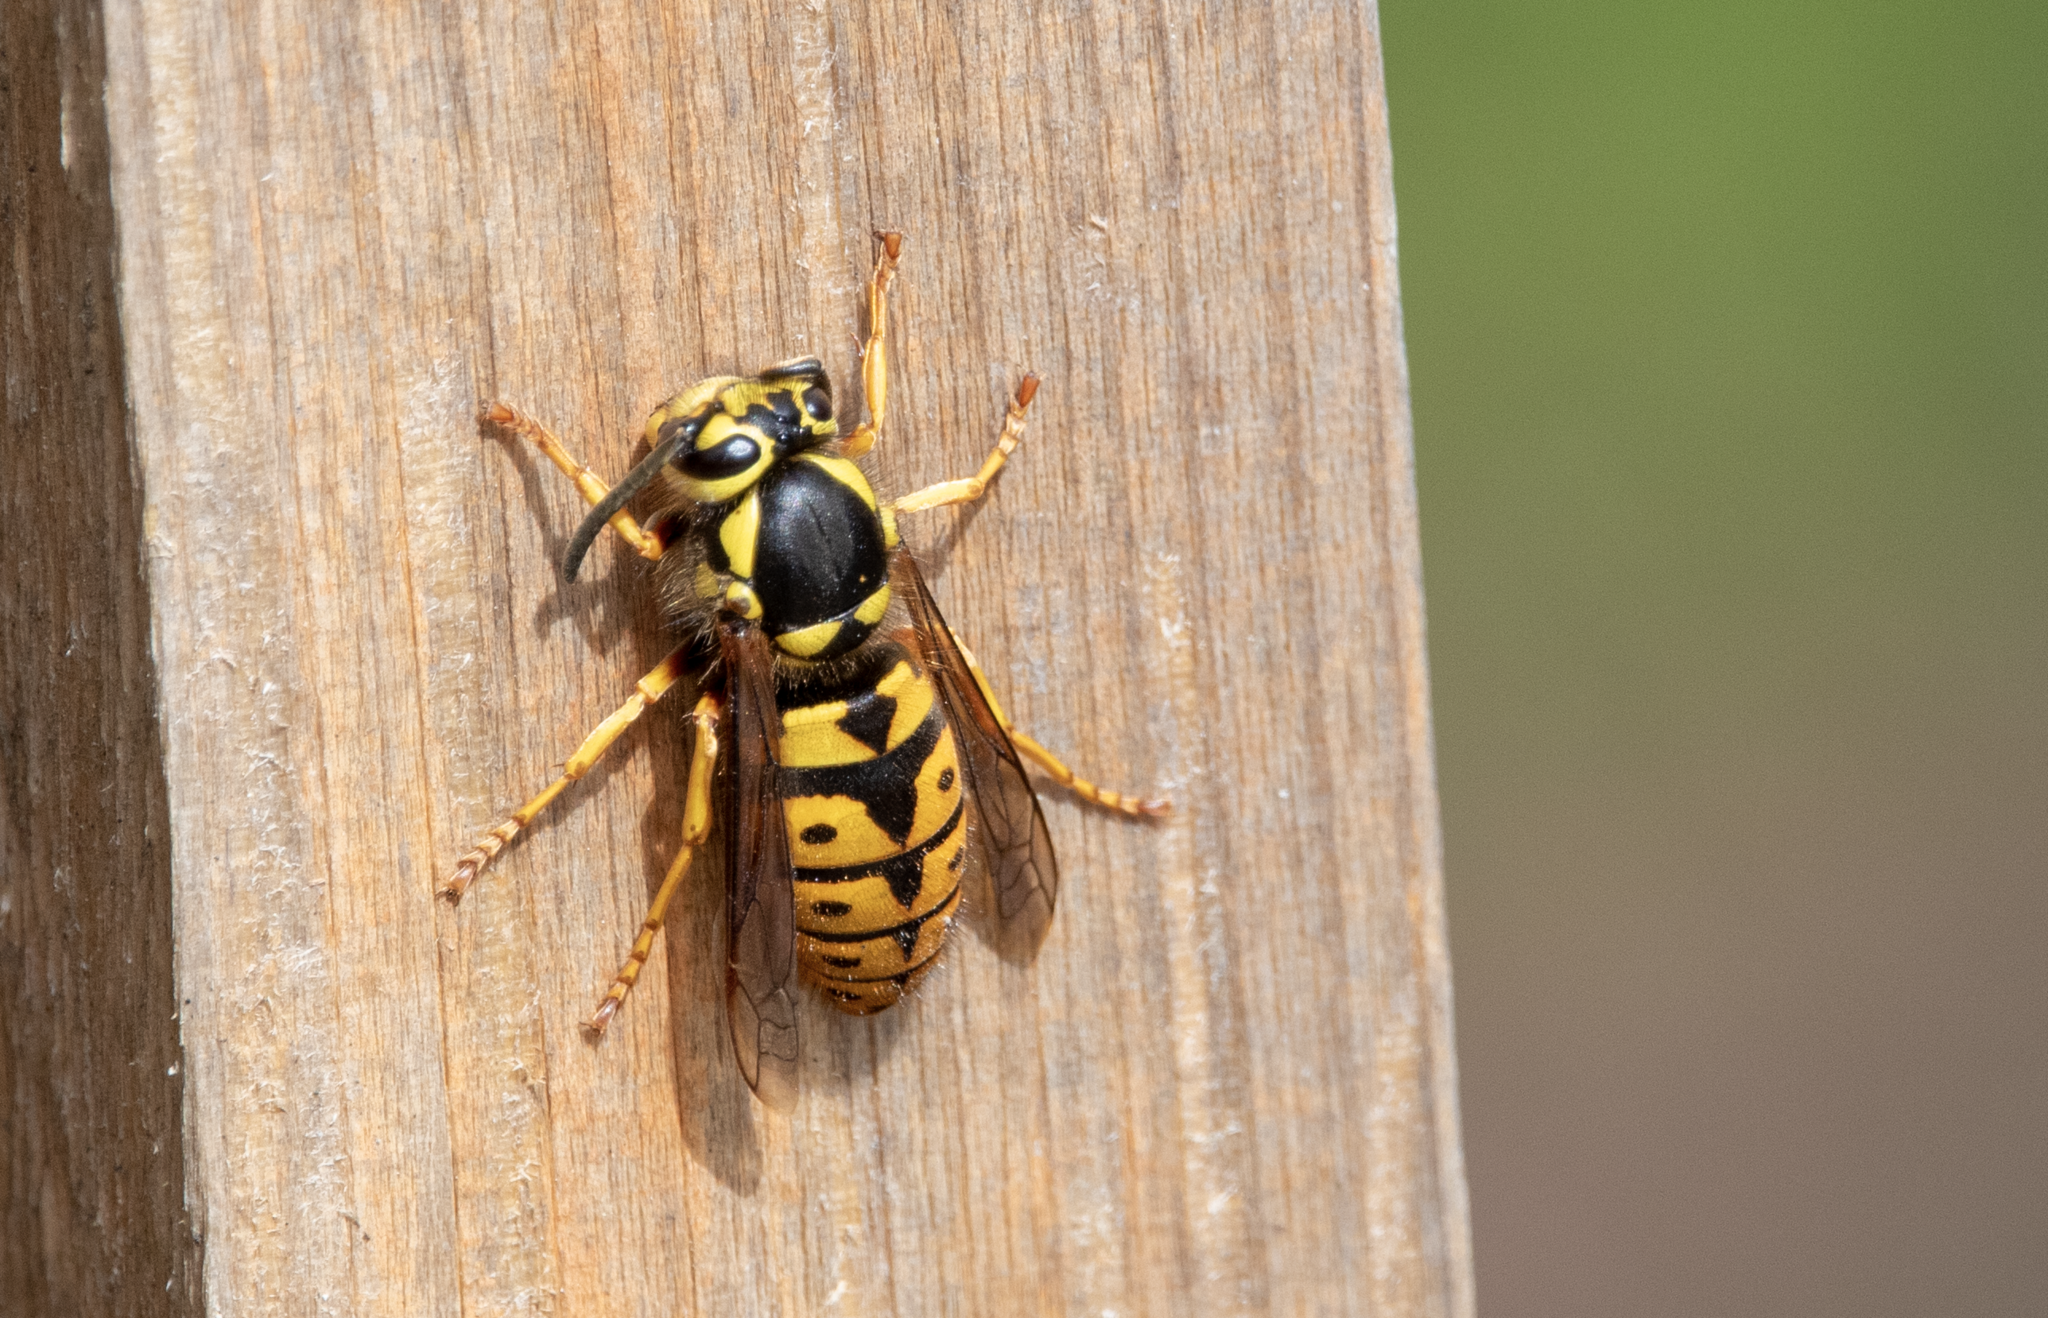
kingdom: Animalia
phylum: Arthropoda
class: Insecta
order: Hymenoptera
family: Vespidae
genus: Vespula
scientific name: Vespula pensylvanica
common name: Western yellowjacket
